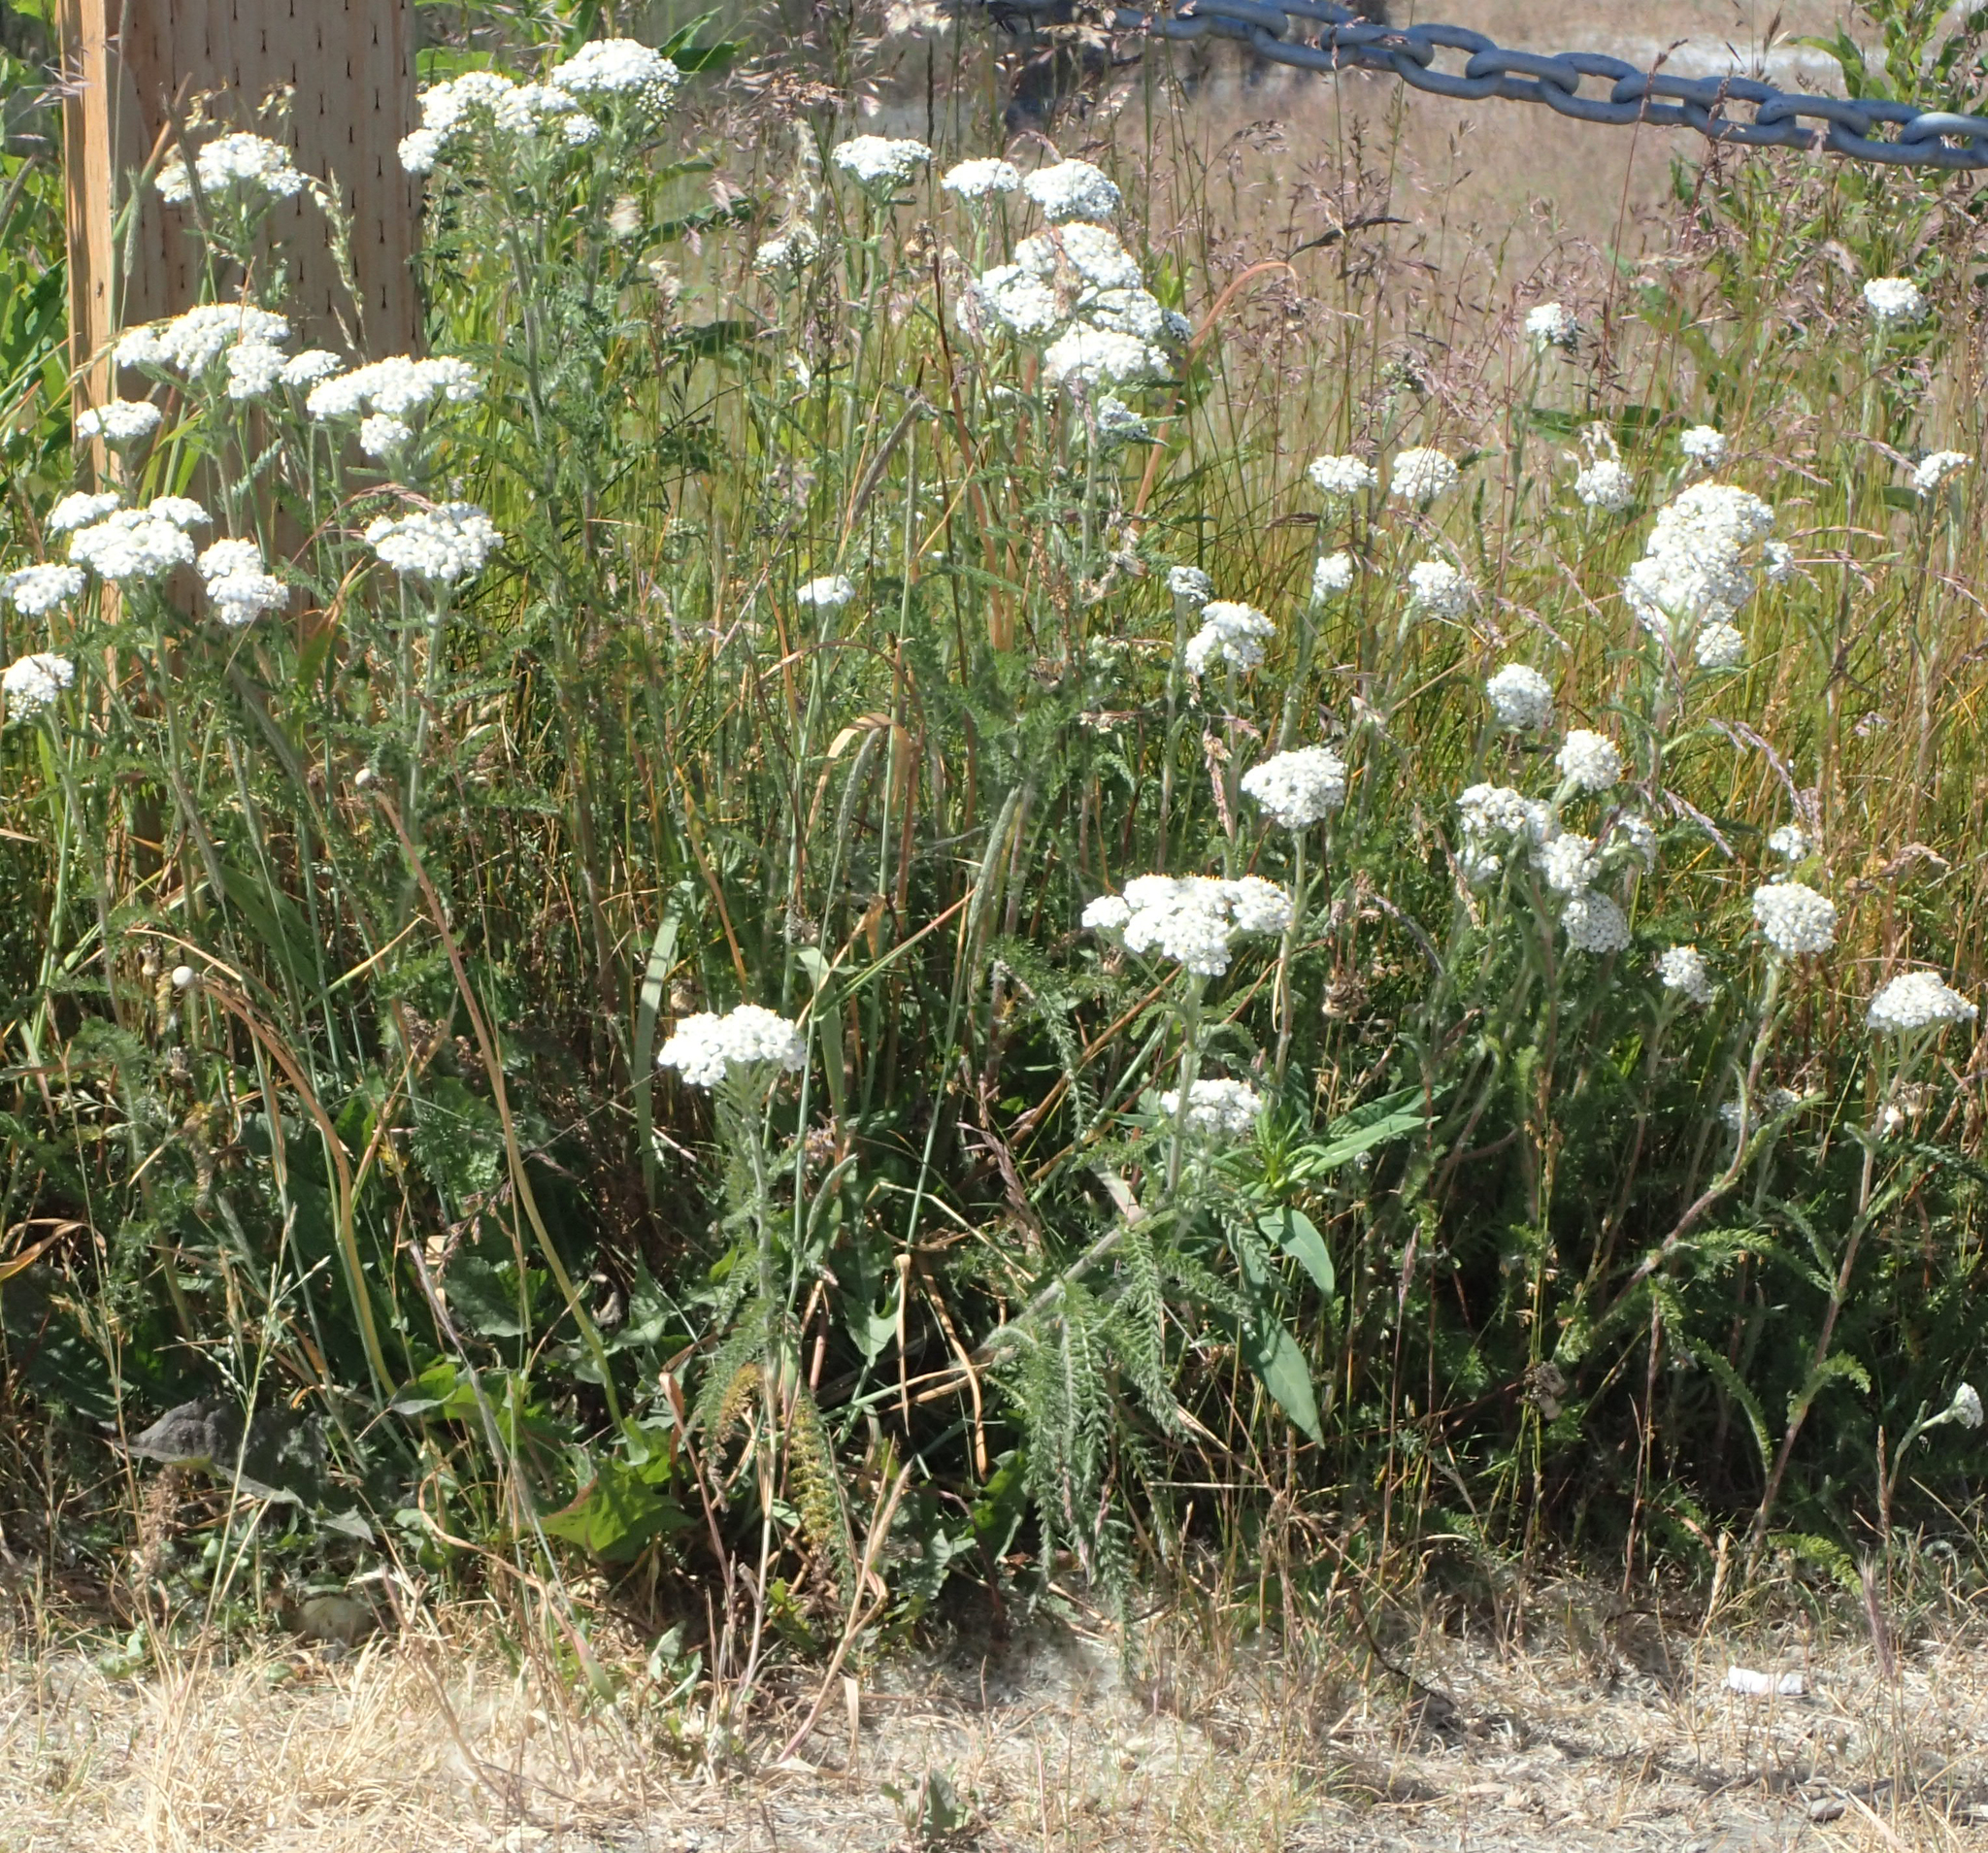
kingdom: Plantae
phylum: Tracheophyta
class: Magnoliopsida
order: Asterales
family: Asteraceae
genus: Achillea
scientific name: Achillea millefolium
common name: Yarrow
